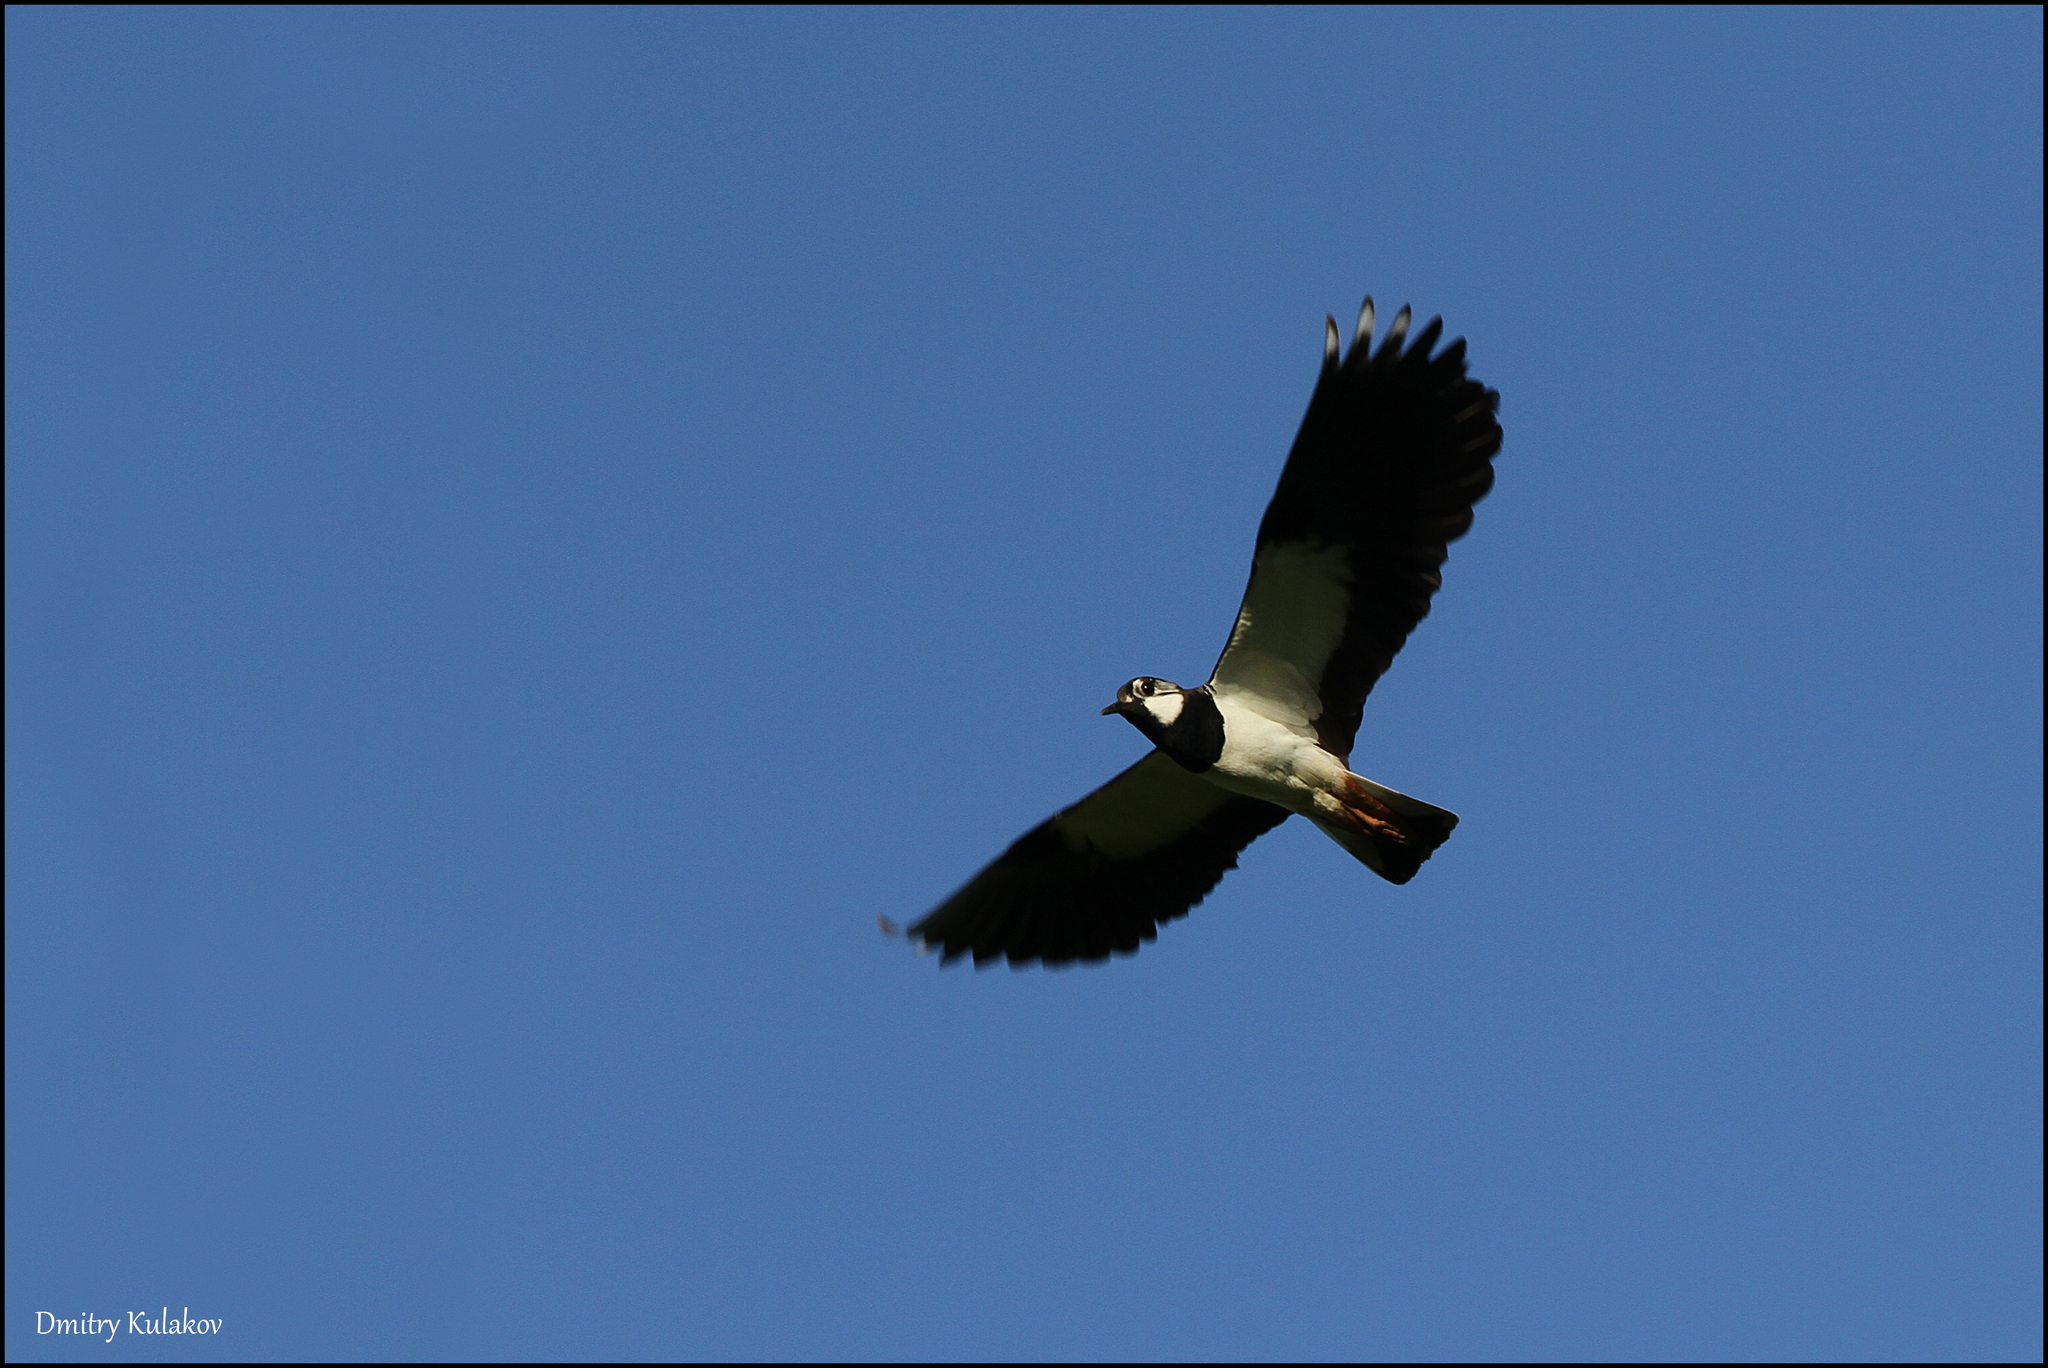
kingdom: Animalia
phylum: Chordata
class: Aves
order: Charadriiformes
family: Charadriidae
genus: Vanellus
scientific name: Vanellus vanellus
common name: Northern lapwing
